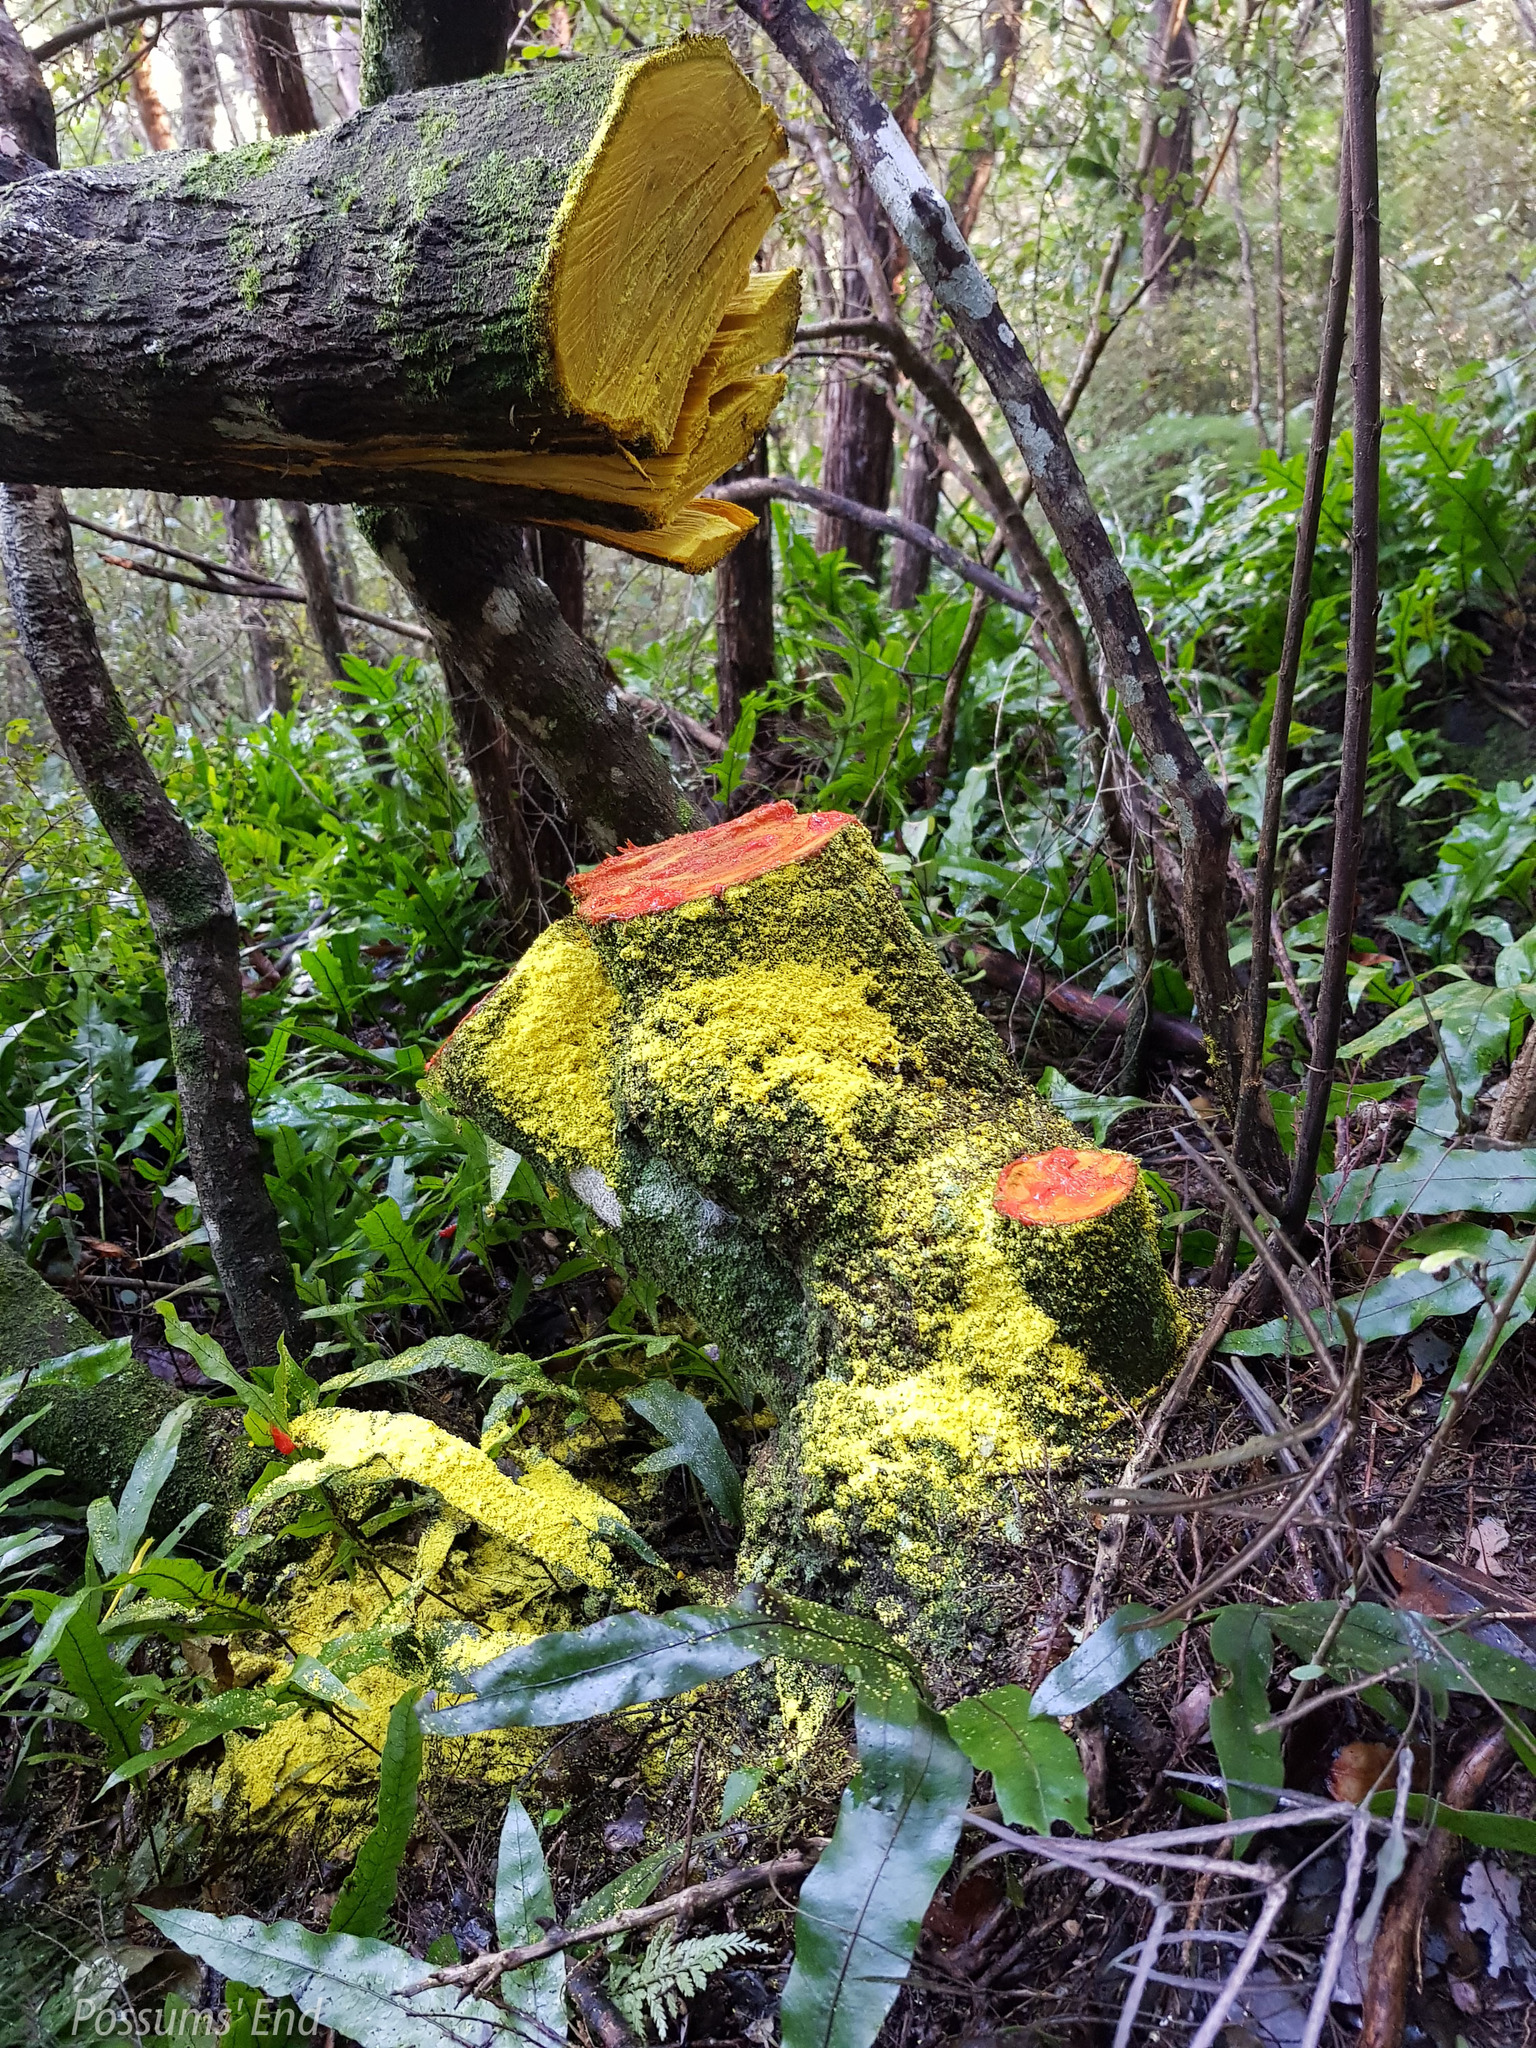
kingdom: Plantae
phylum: Tracheophyta
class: Magnoliopsida
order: Ranunculales
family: Berberidaceae
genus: Berberis
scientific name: Berberis darwinii
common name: Darwin's barberry
